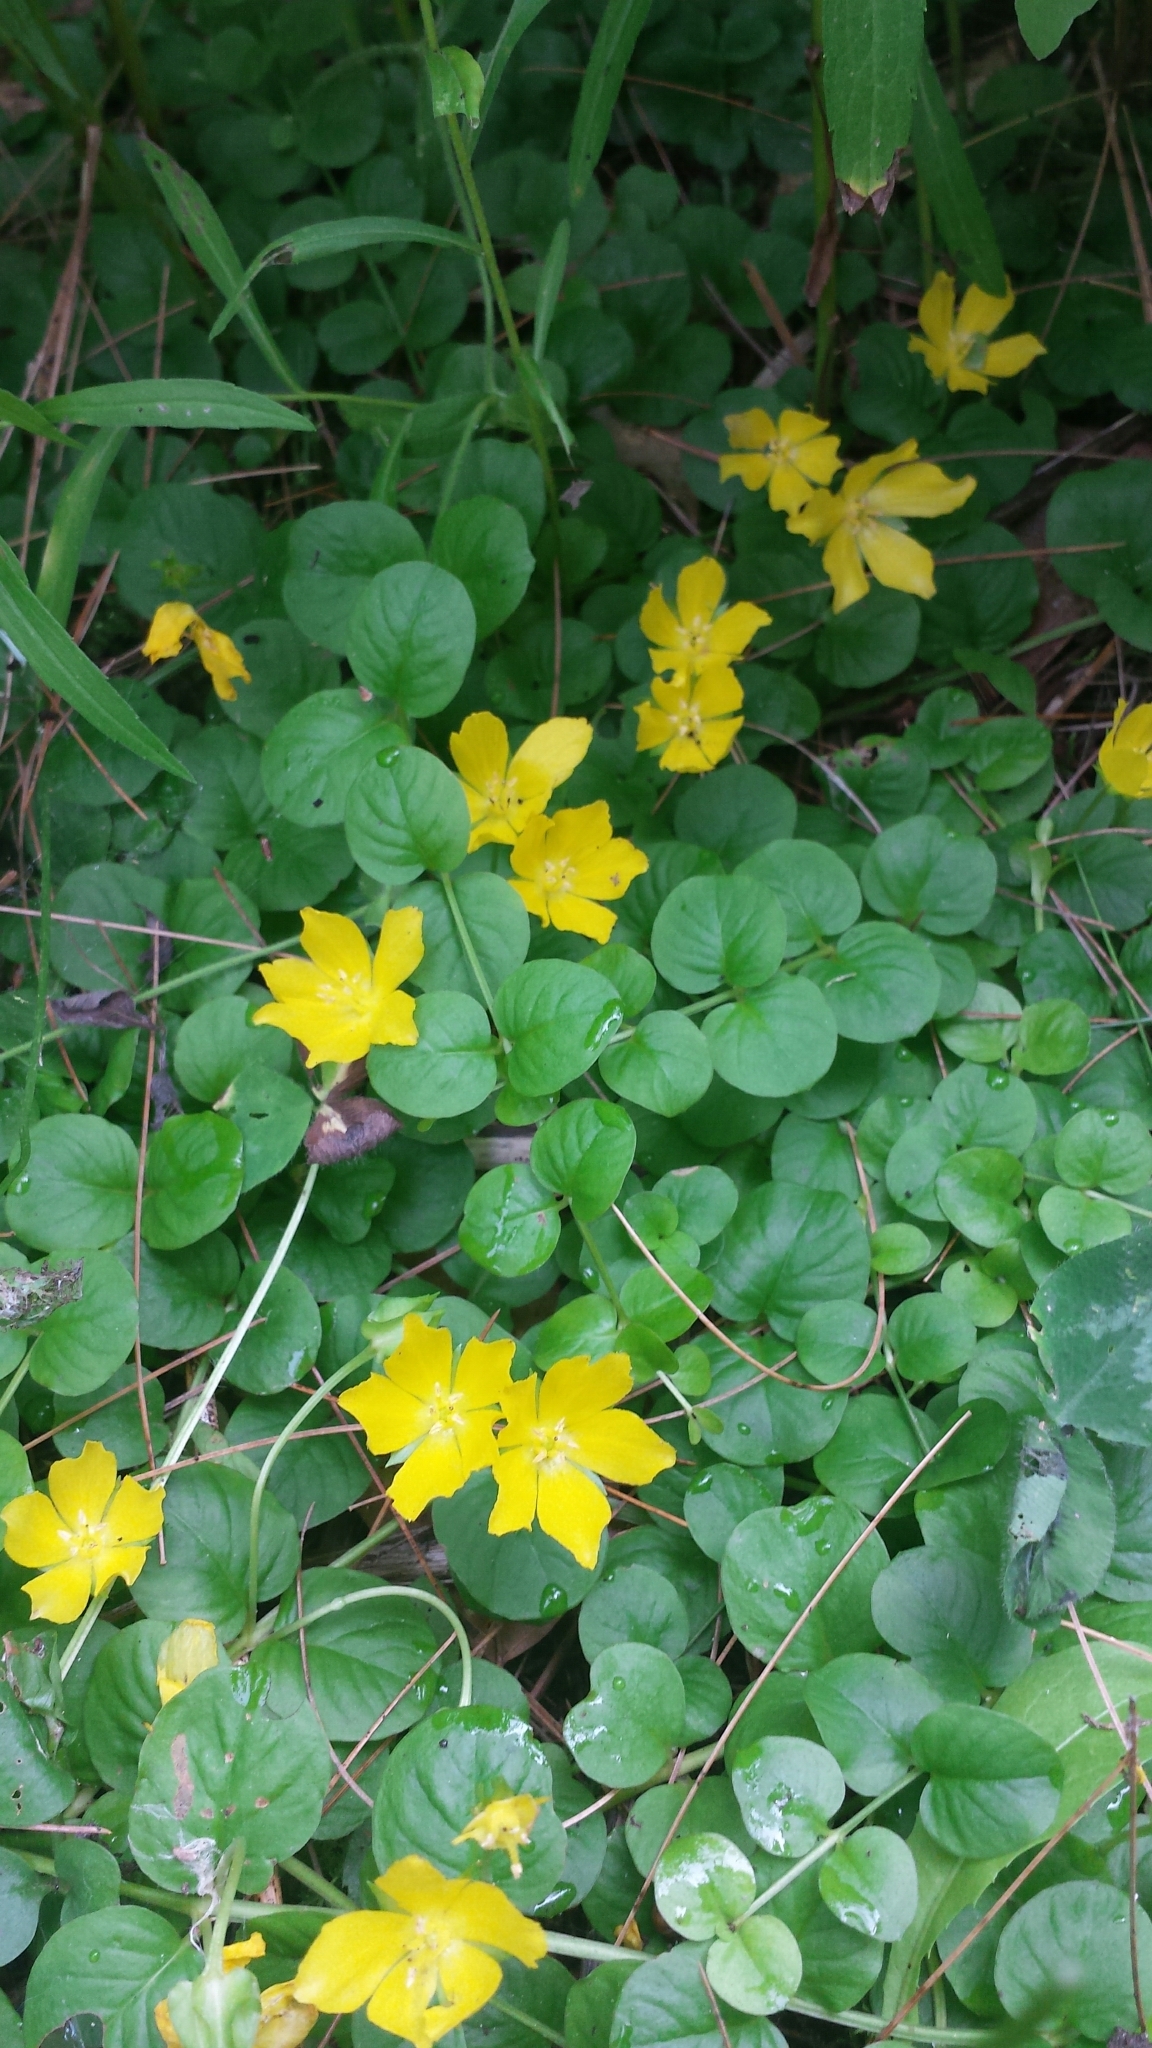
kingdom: Plantae
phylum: Tracheophyta
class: Magnoliopsida
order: Ericales
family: Primulaceae
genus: Lysimachia
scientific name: Lysimachia nummularia
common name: Moneywort
